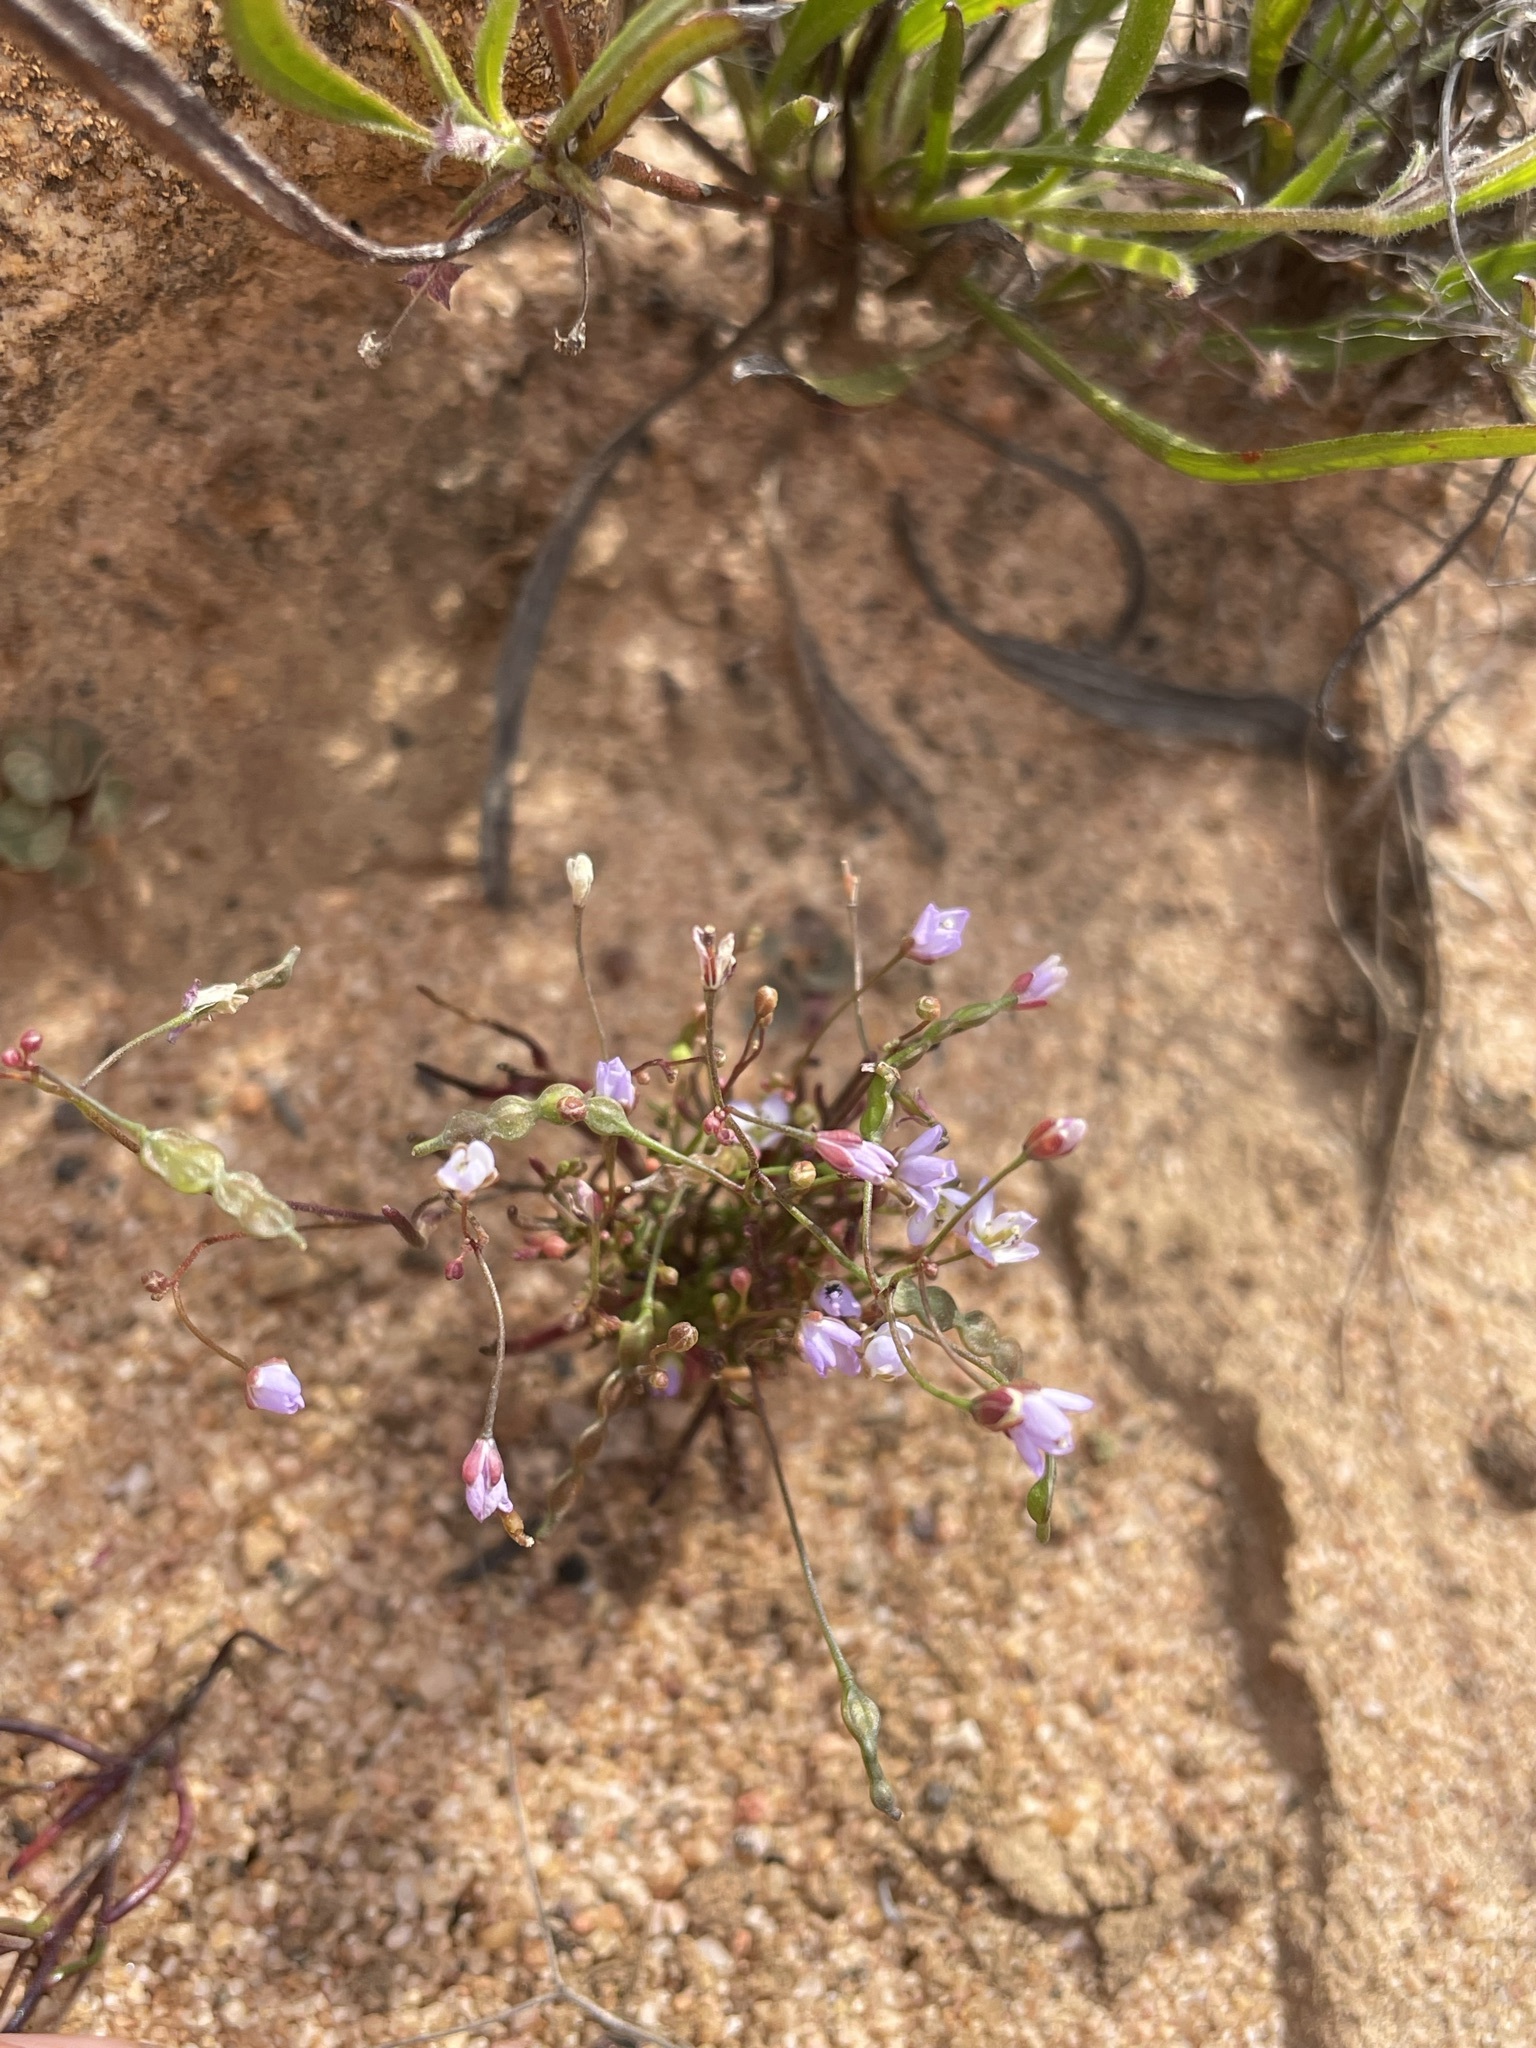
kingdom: Plantae
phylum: Tracheophyta
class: Magnoliopsida
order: Brassicales
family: Brassicaceae
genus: Heliophila
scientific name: Heliophila pinnata
